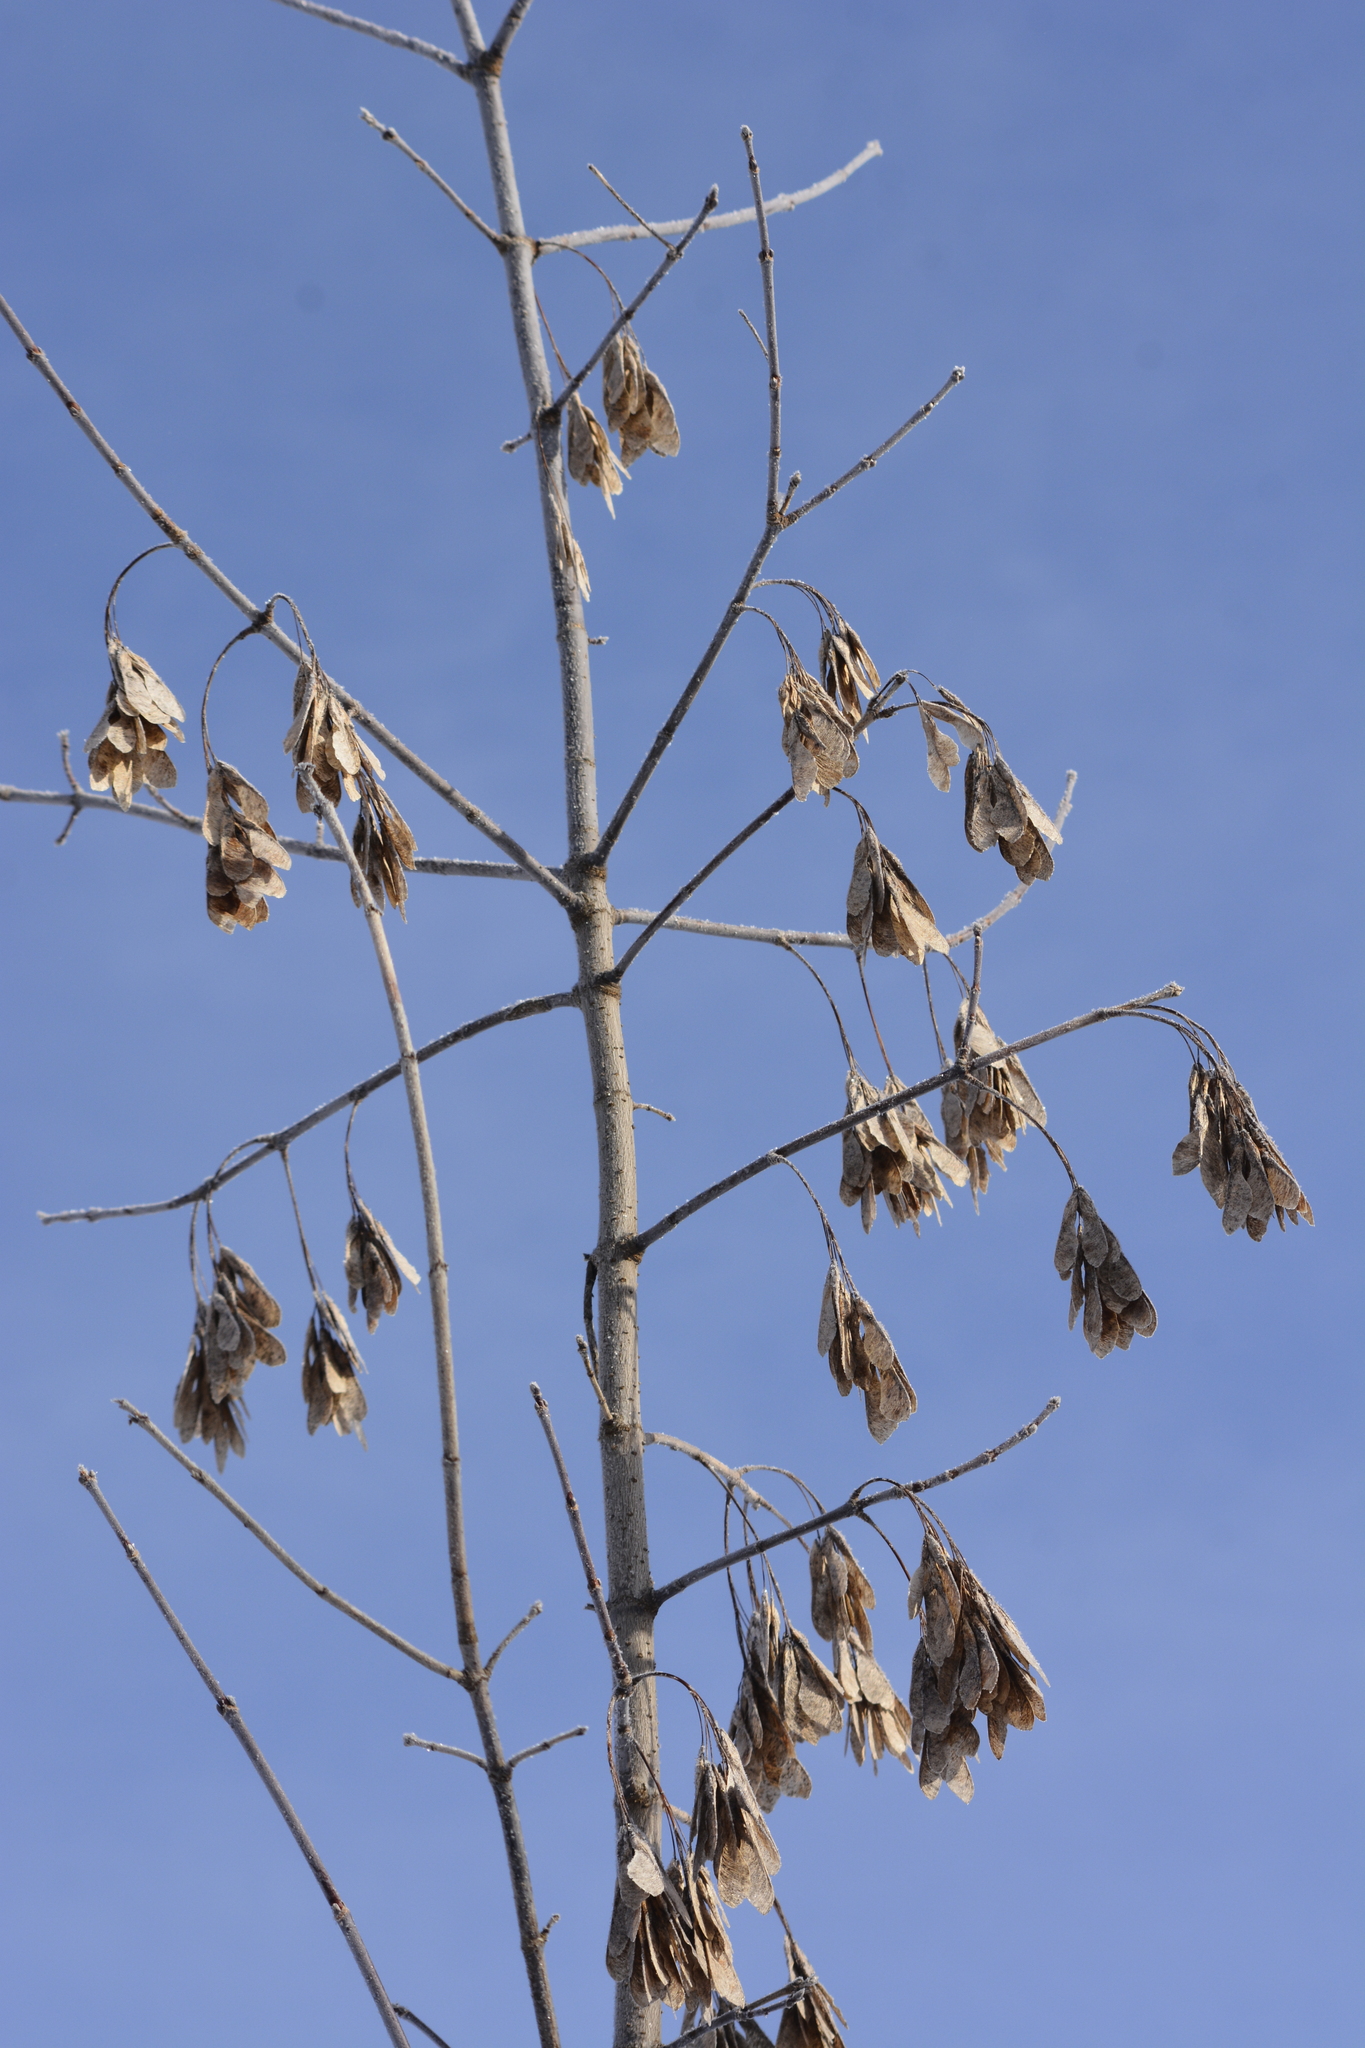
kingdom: Plantae
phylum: Tracheophyta
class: Magnoliopsida
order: Sapindales
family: Sapindaceae
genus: Acer
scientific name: Acer negundo
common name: Ashleaf maple
